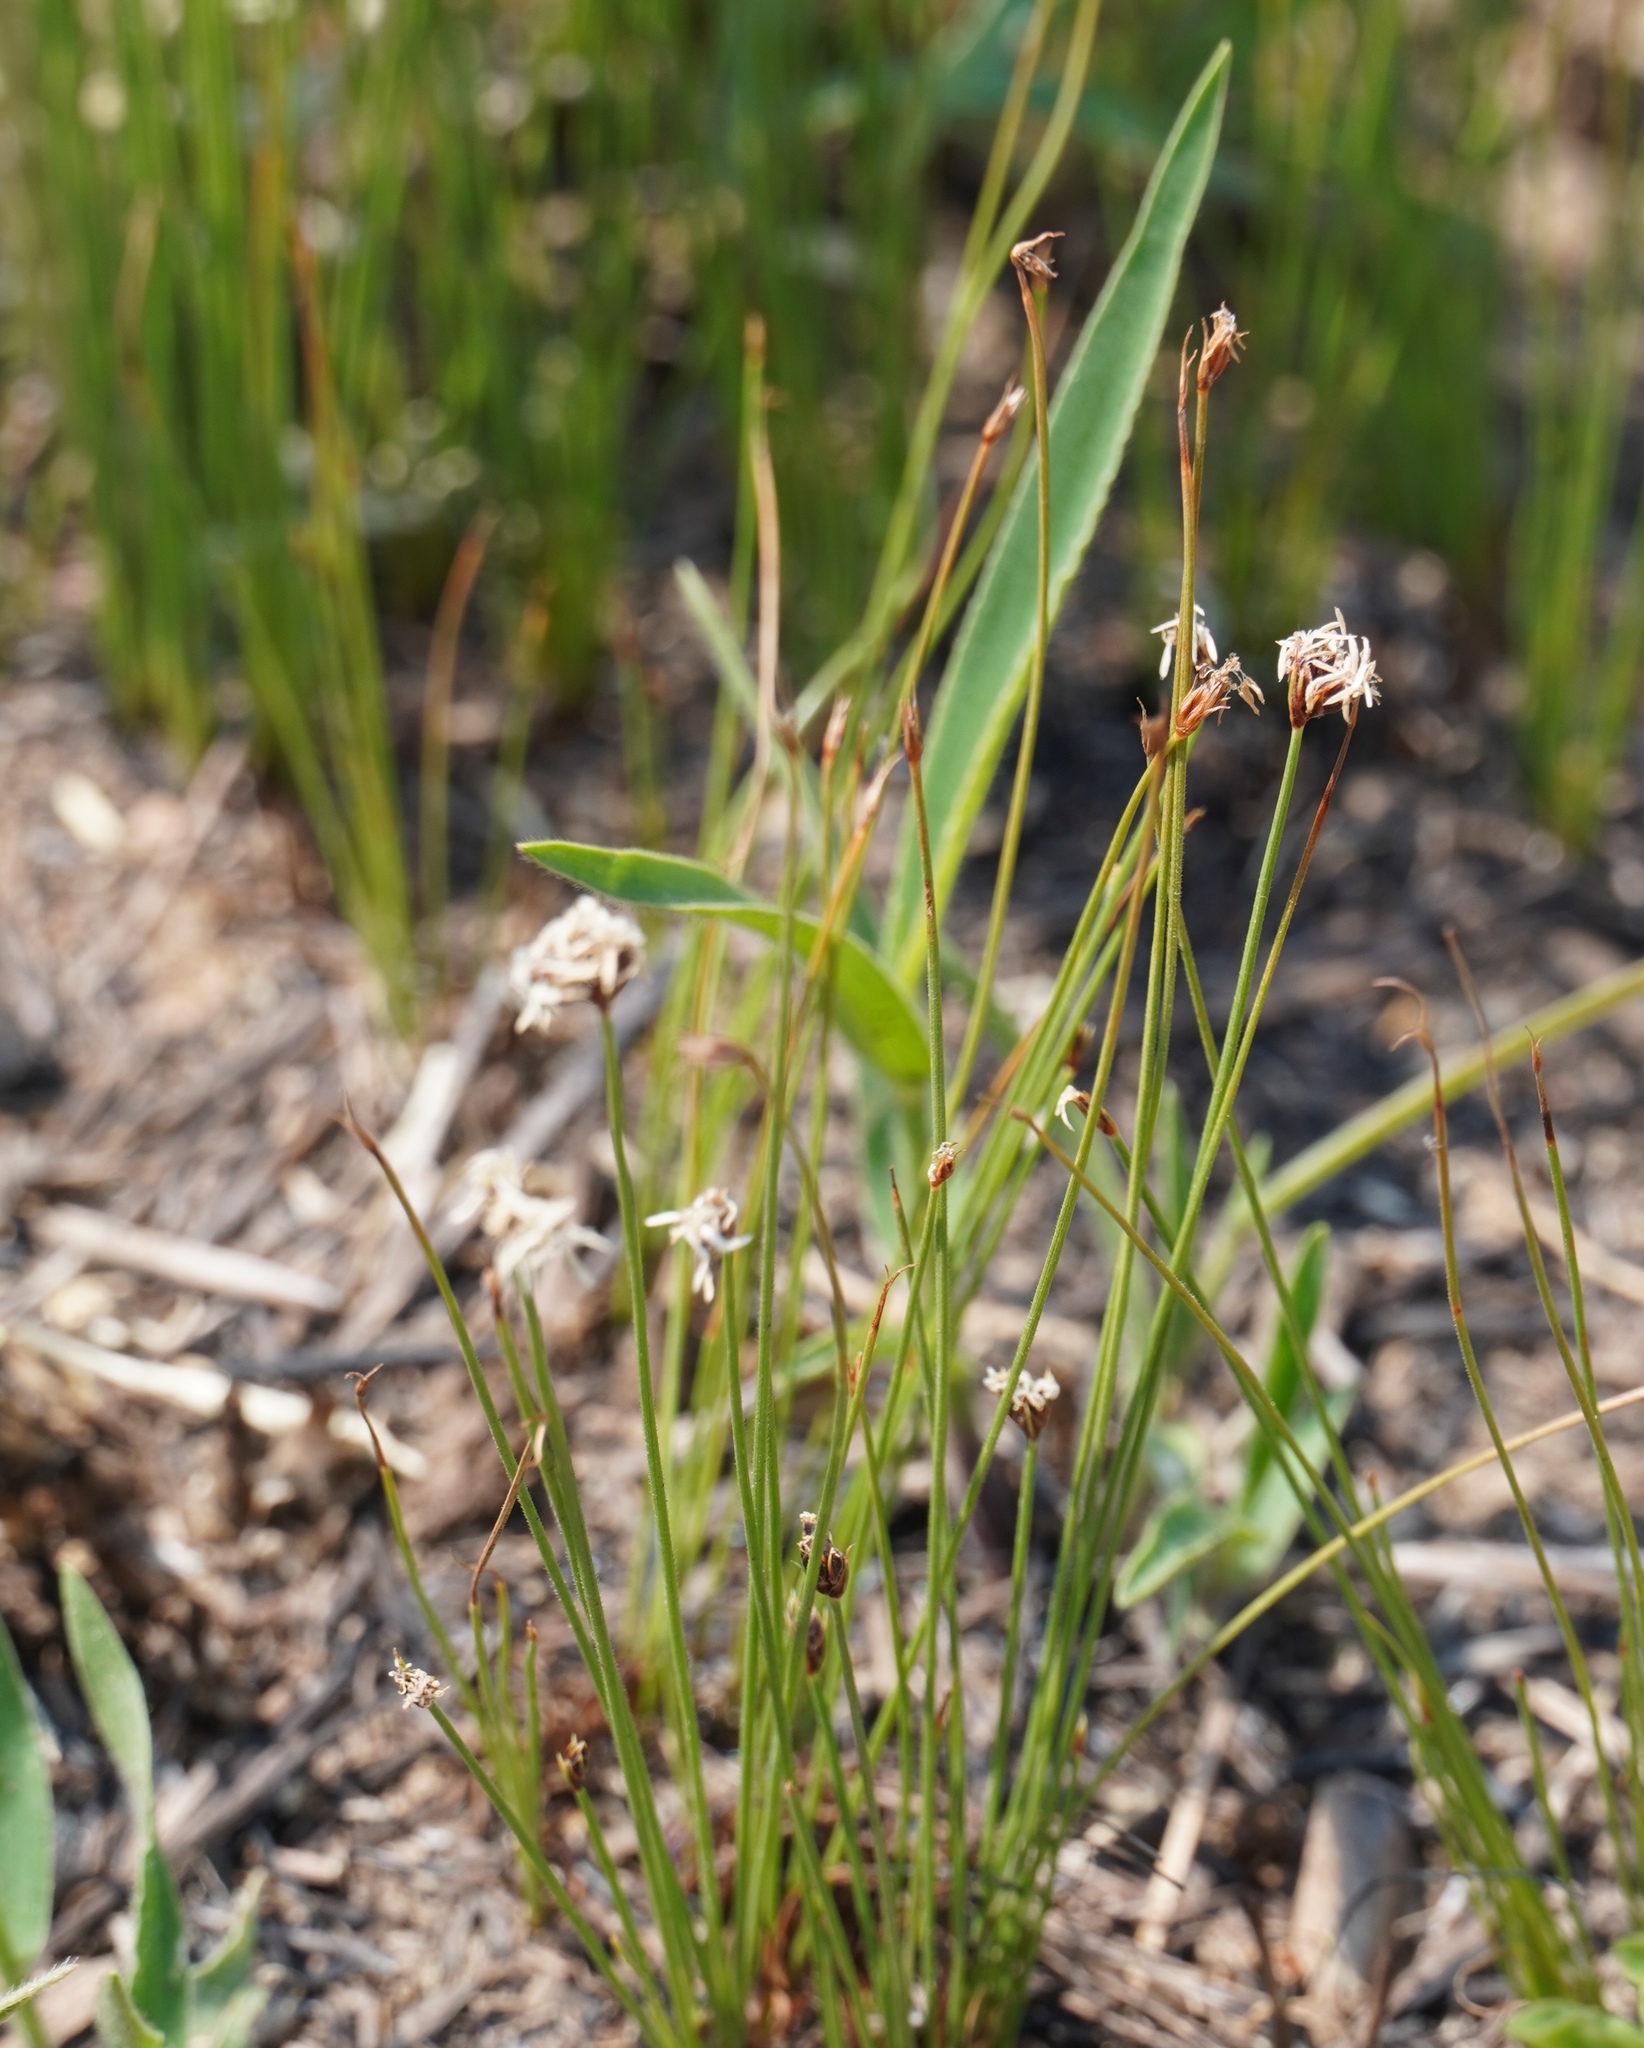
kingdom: Plantae
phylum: Tracheophyta
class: Liliopsida
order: Poales
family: Cyperaceae
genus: Bulbostylis
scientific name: Bulbostylis oritrephes
